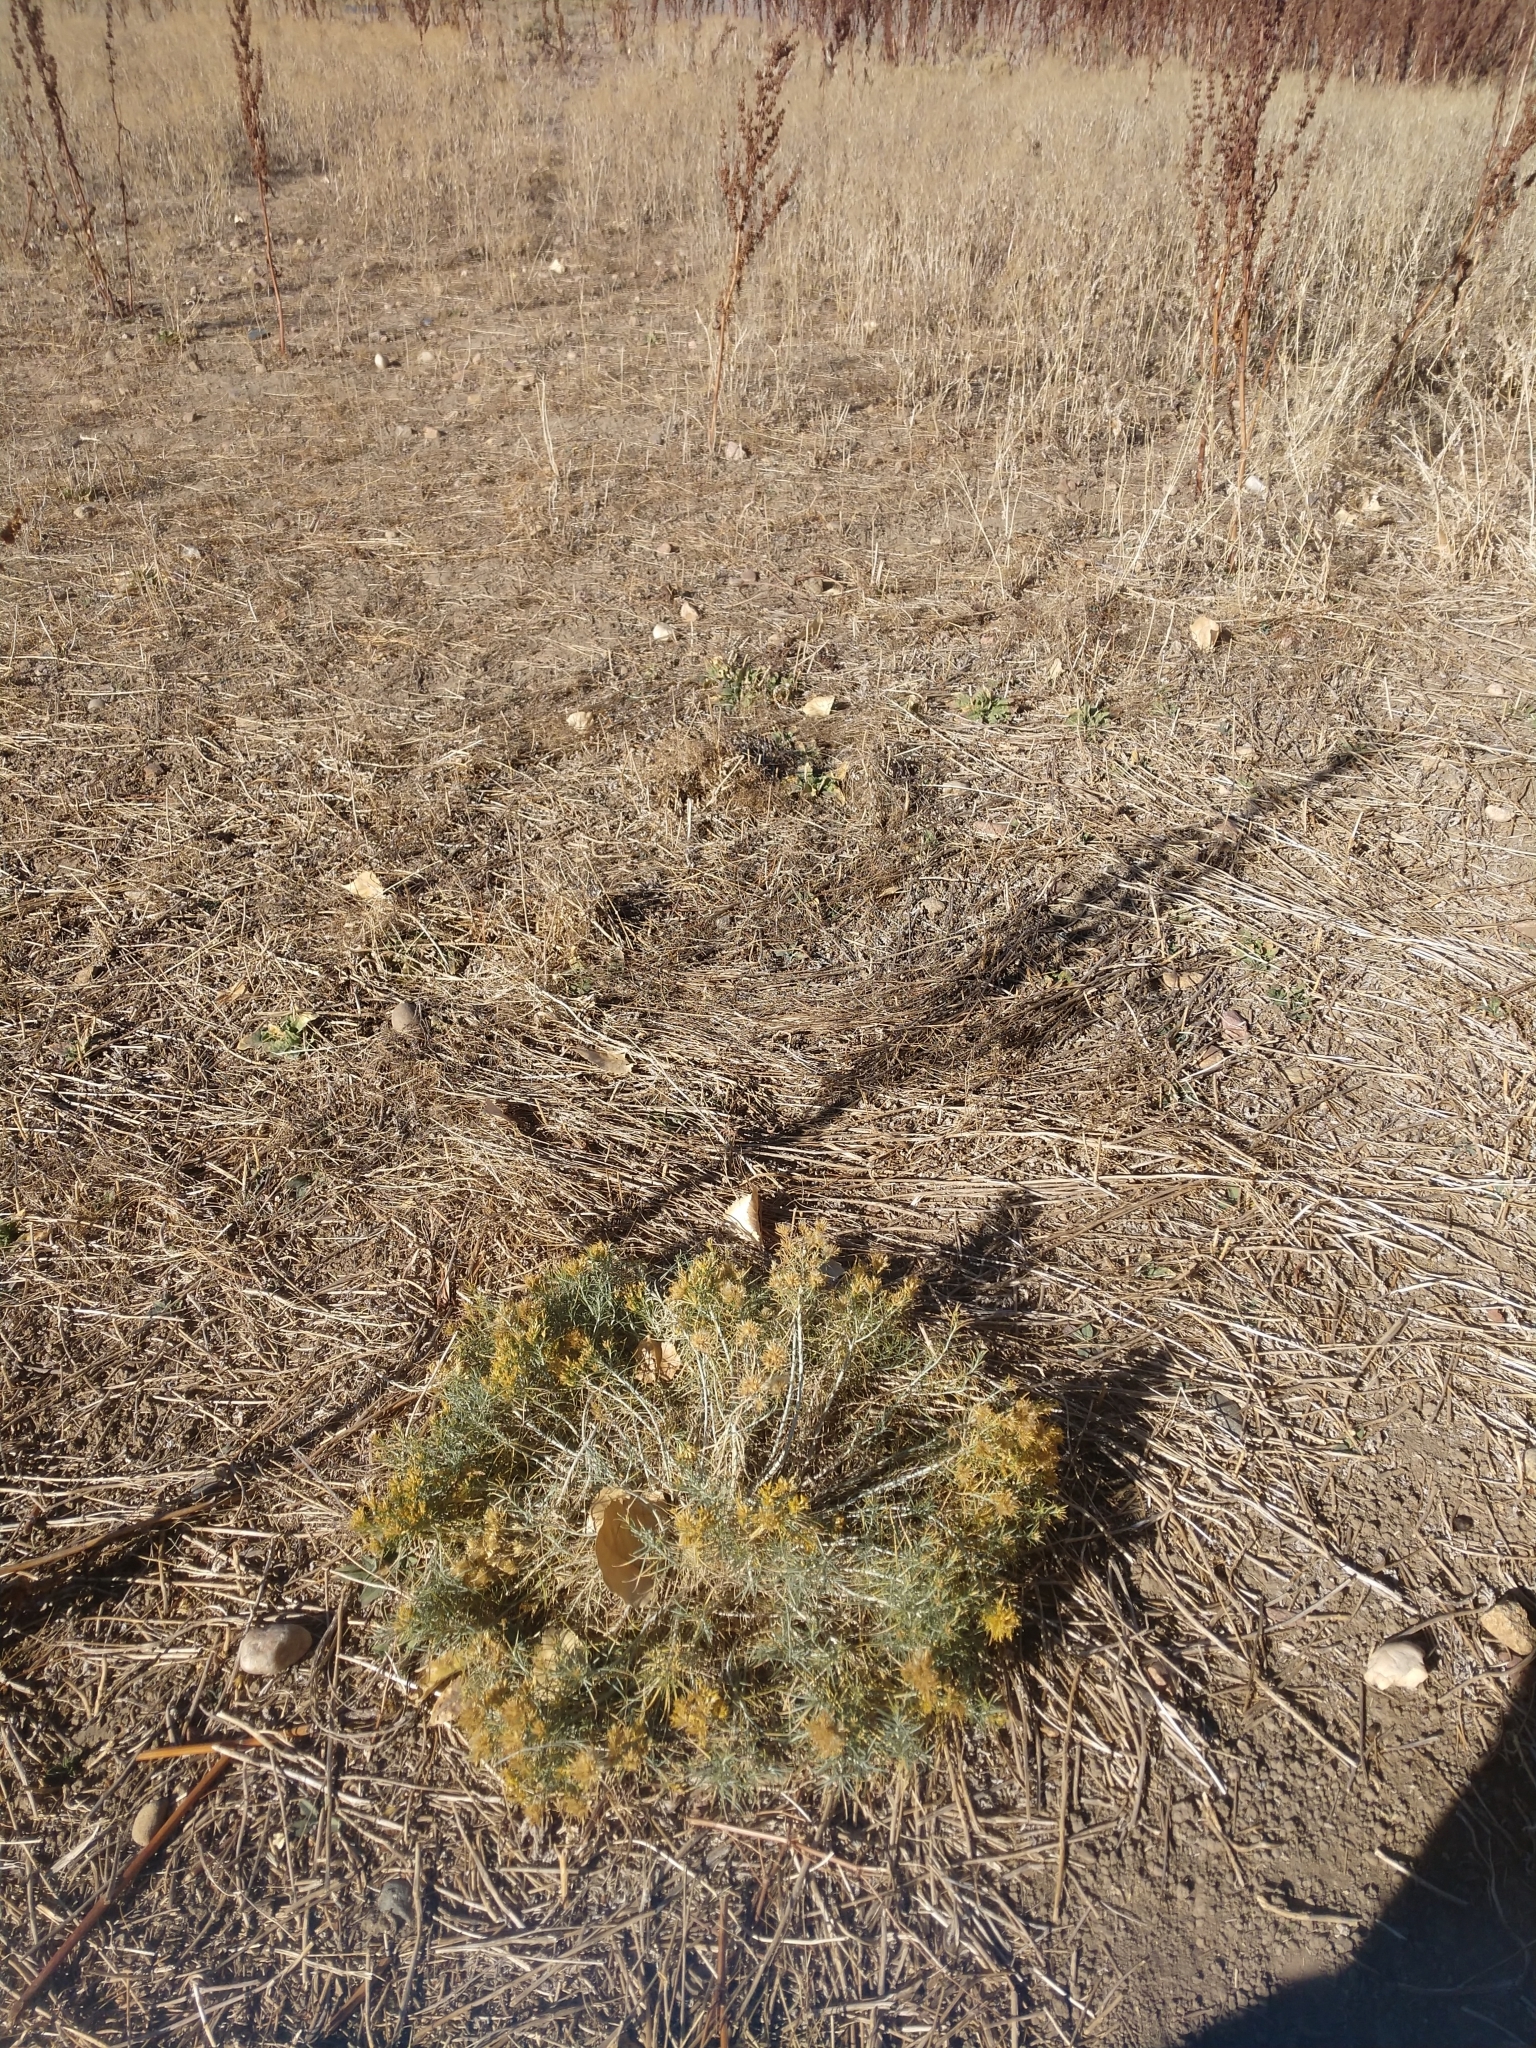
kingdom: Plantae
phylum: Tracheophyta
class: Magnoliopsida
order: Asterales
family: Asteraceae
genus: Ericameria
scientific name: Ericameria nauseosa
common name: Rubber rabbitbrush
